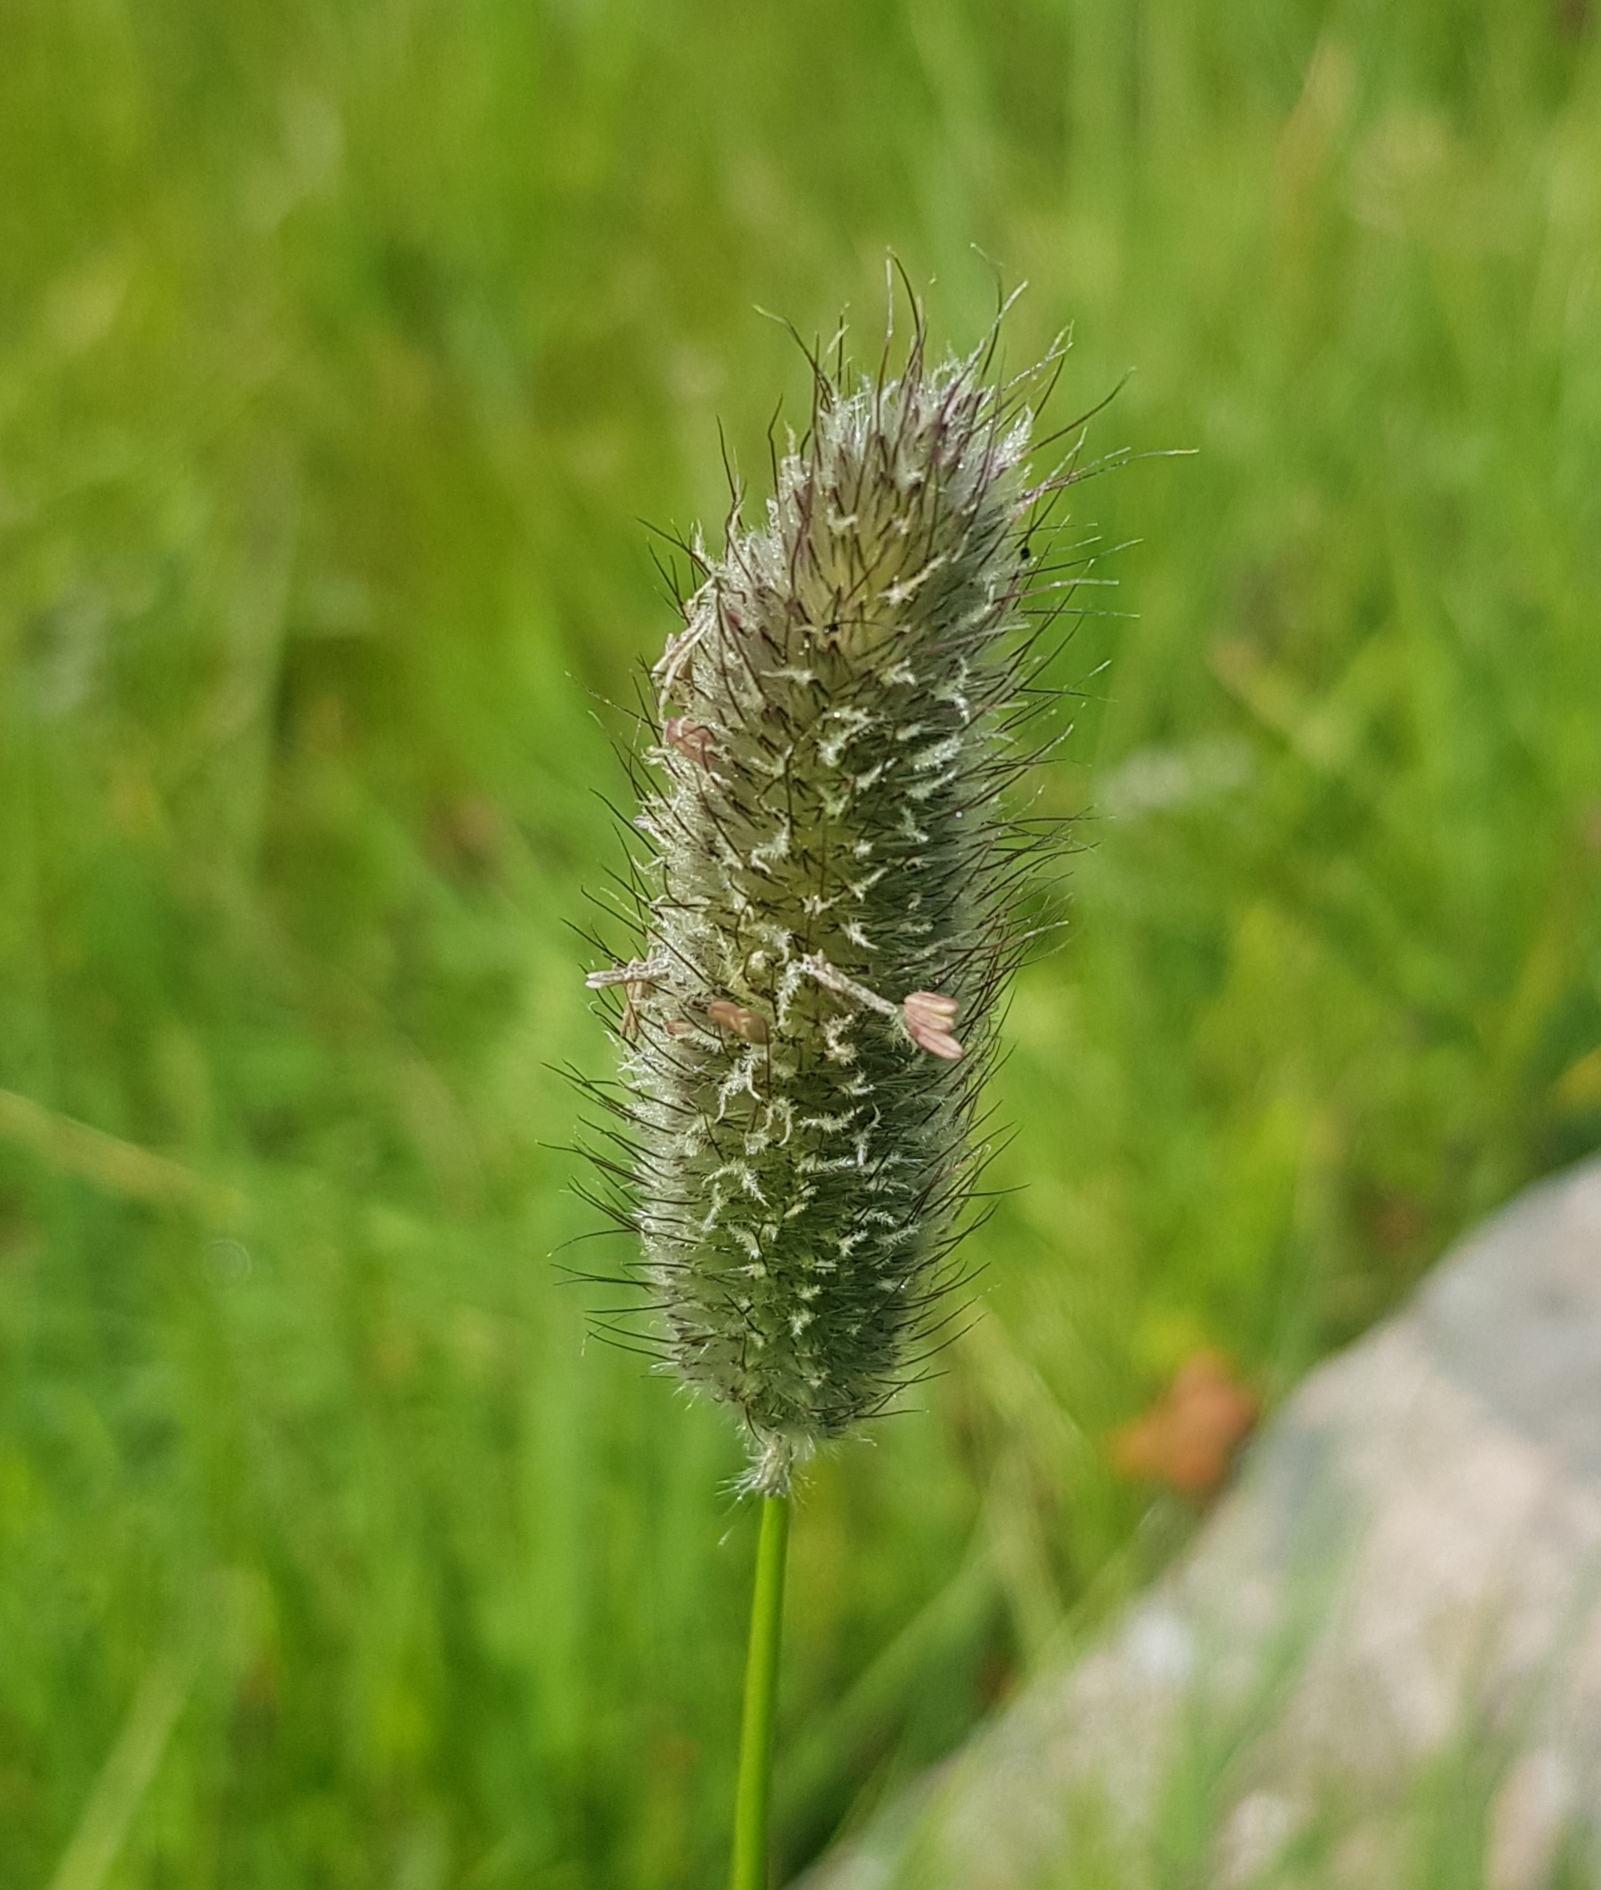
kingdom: Plantae
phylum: Tracheophyta
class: Liliopsida
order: Poales
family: Poaceae
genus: Phleum
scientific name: Phleum alpinum
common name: Alpine cat's-tail
